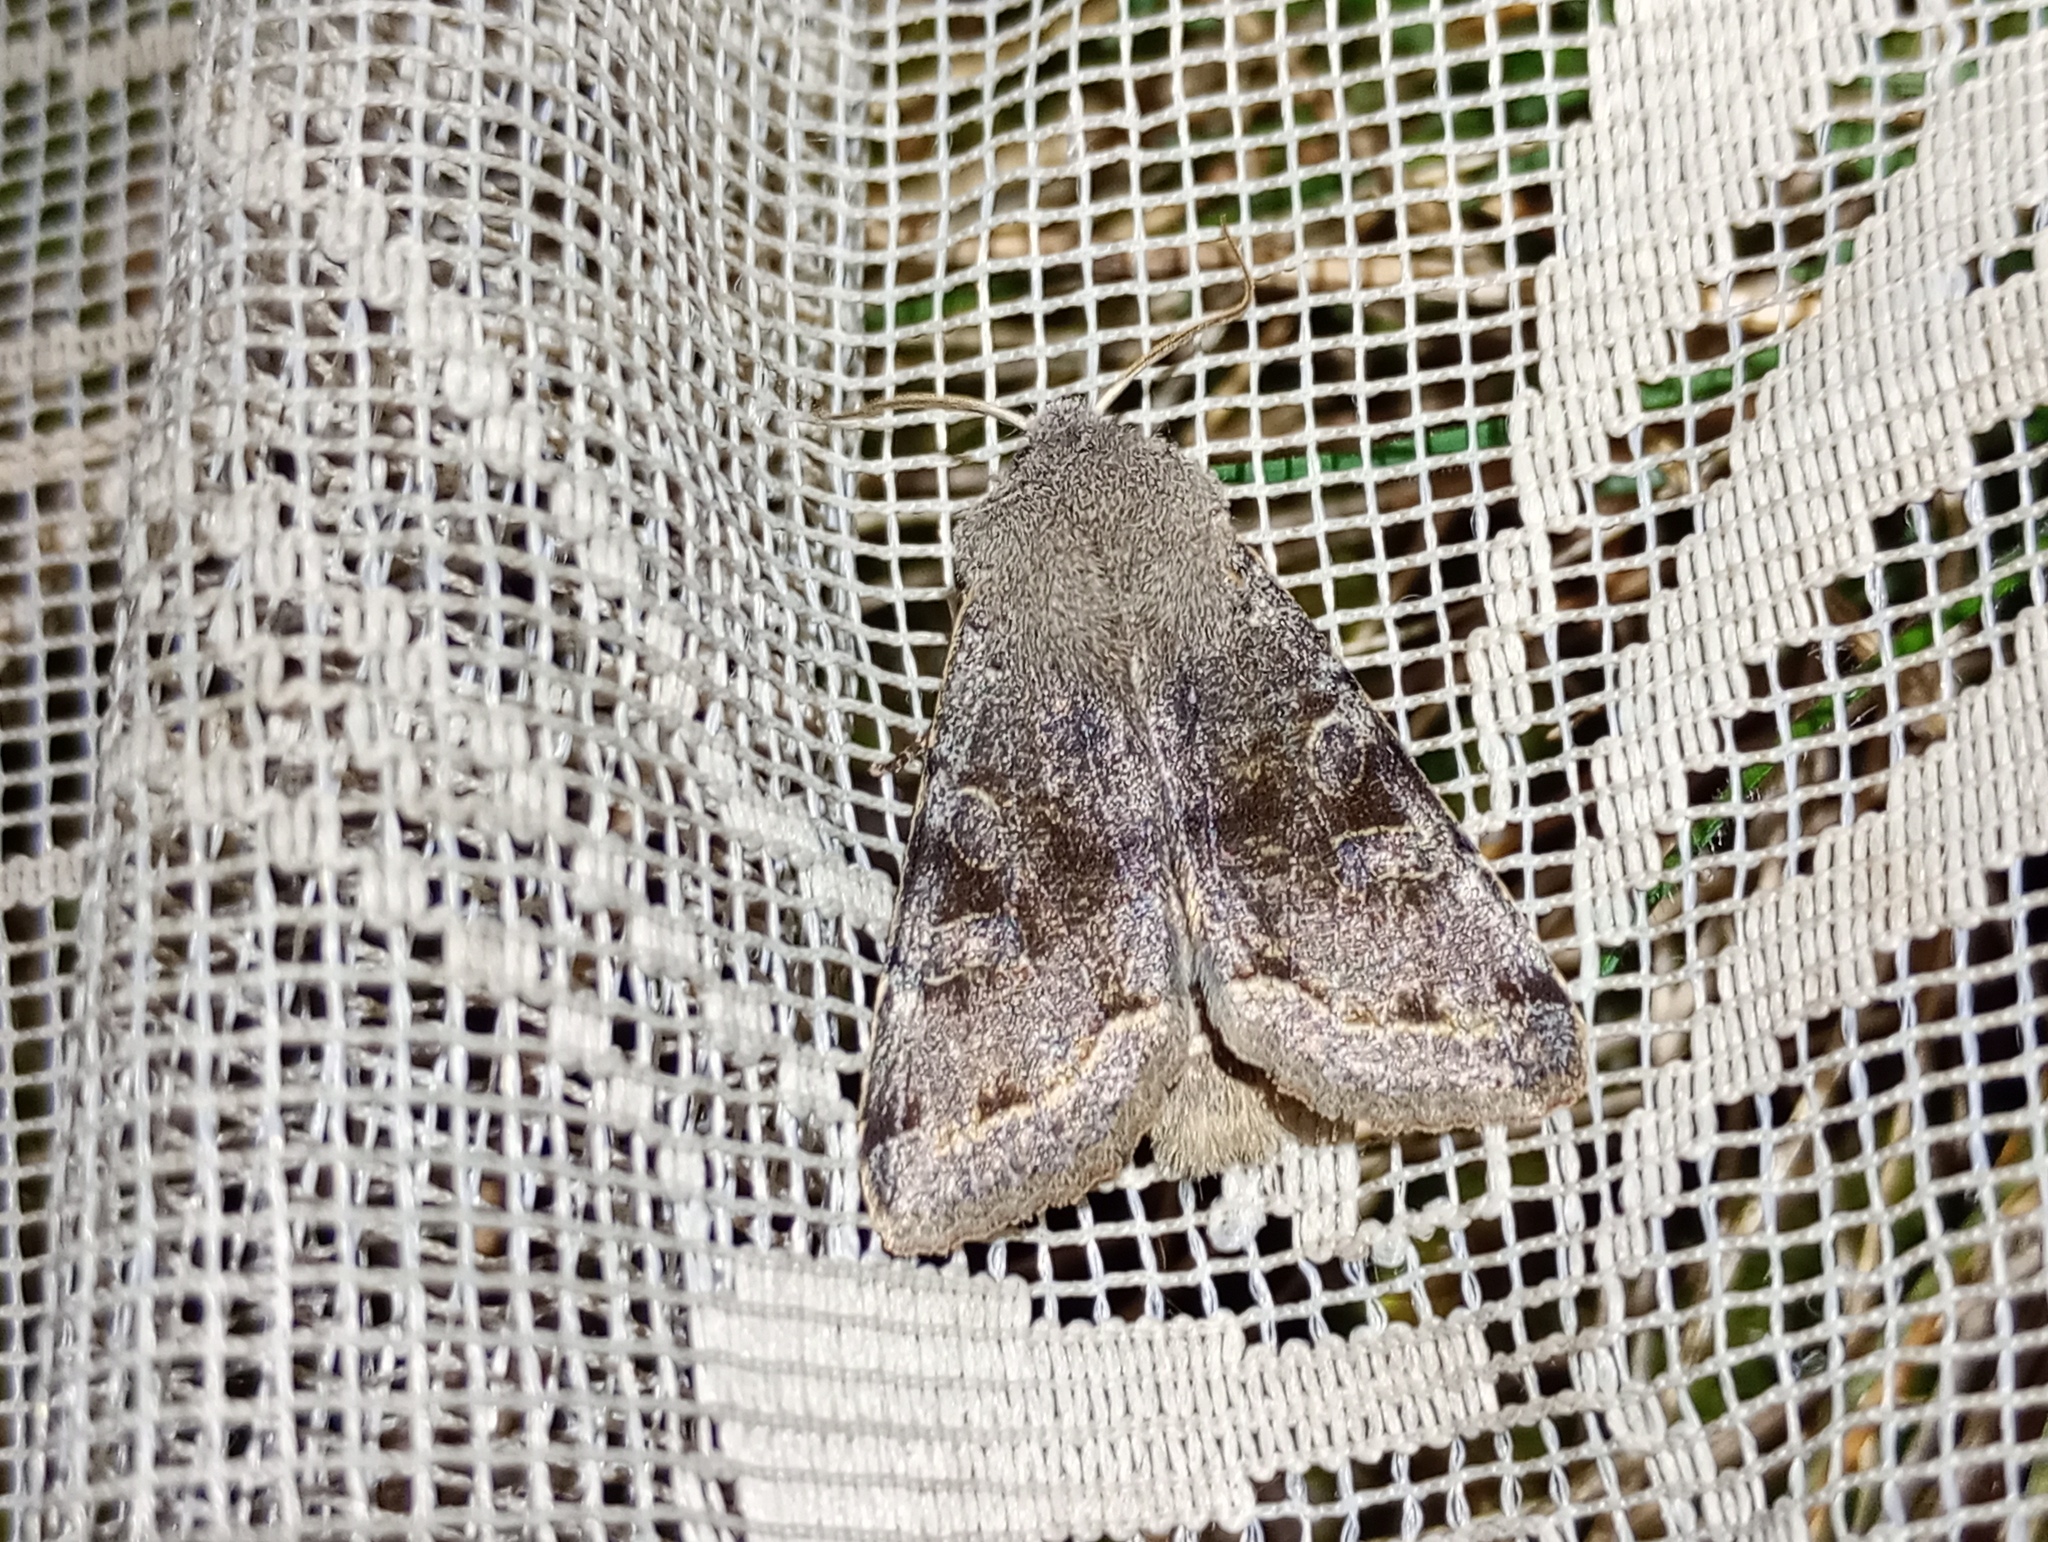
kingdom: Animalia
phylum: Arthropoda
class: Insecta
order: Lepidoptera
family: Noctuidae
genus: Orthosia
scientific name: Orthosia incerta
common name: Clouded drab
